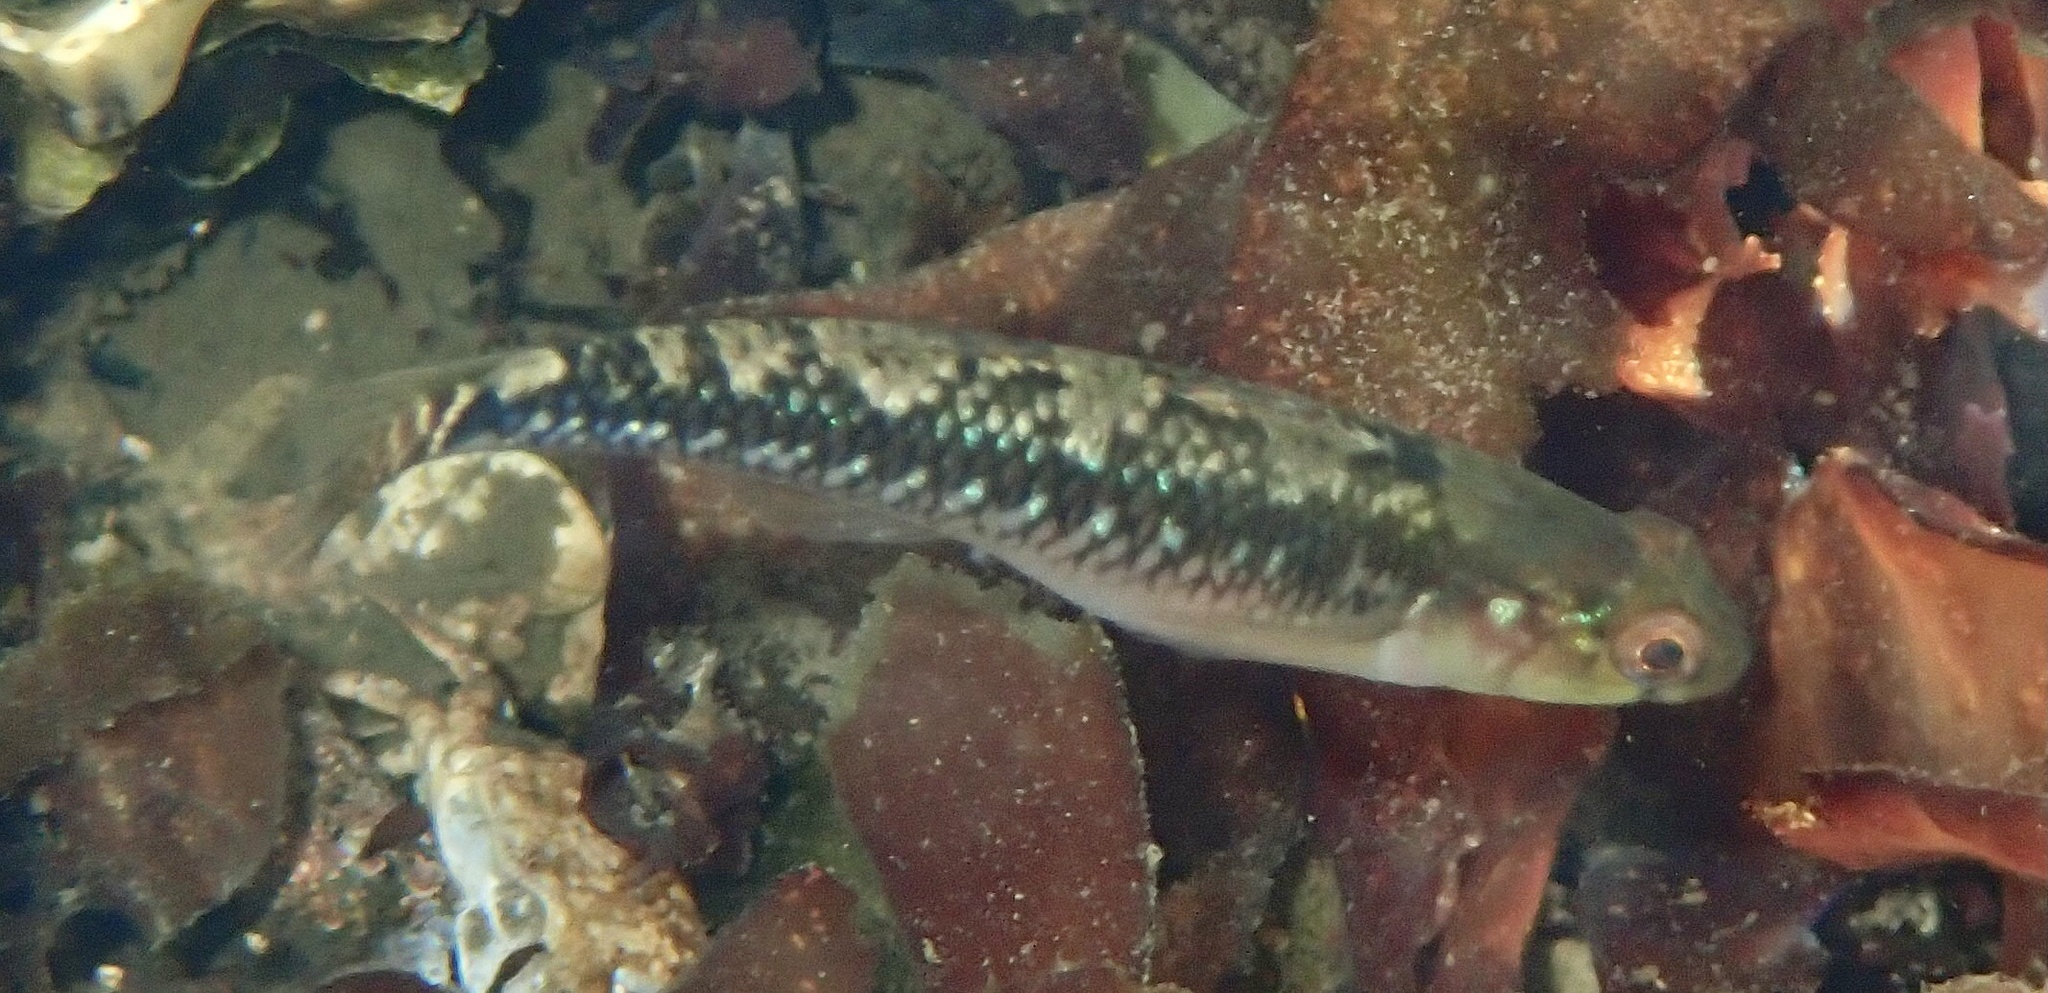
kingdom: Animalia
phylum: Chordata
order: Perciformes
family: Gobiidae
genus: Gobiusculus
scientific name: Gobiusculus flavescens
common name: Two-spotted goby
